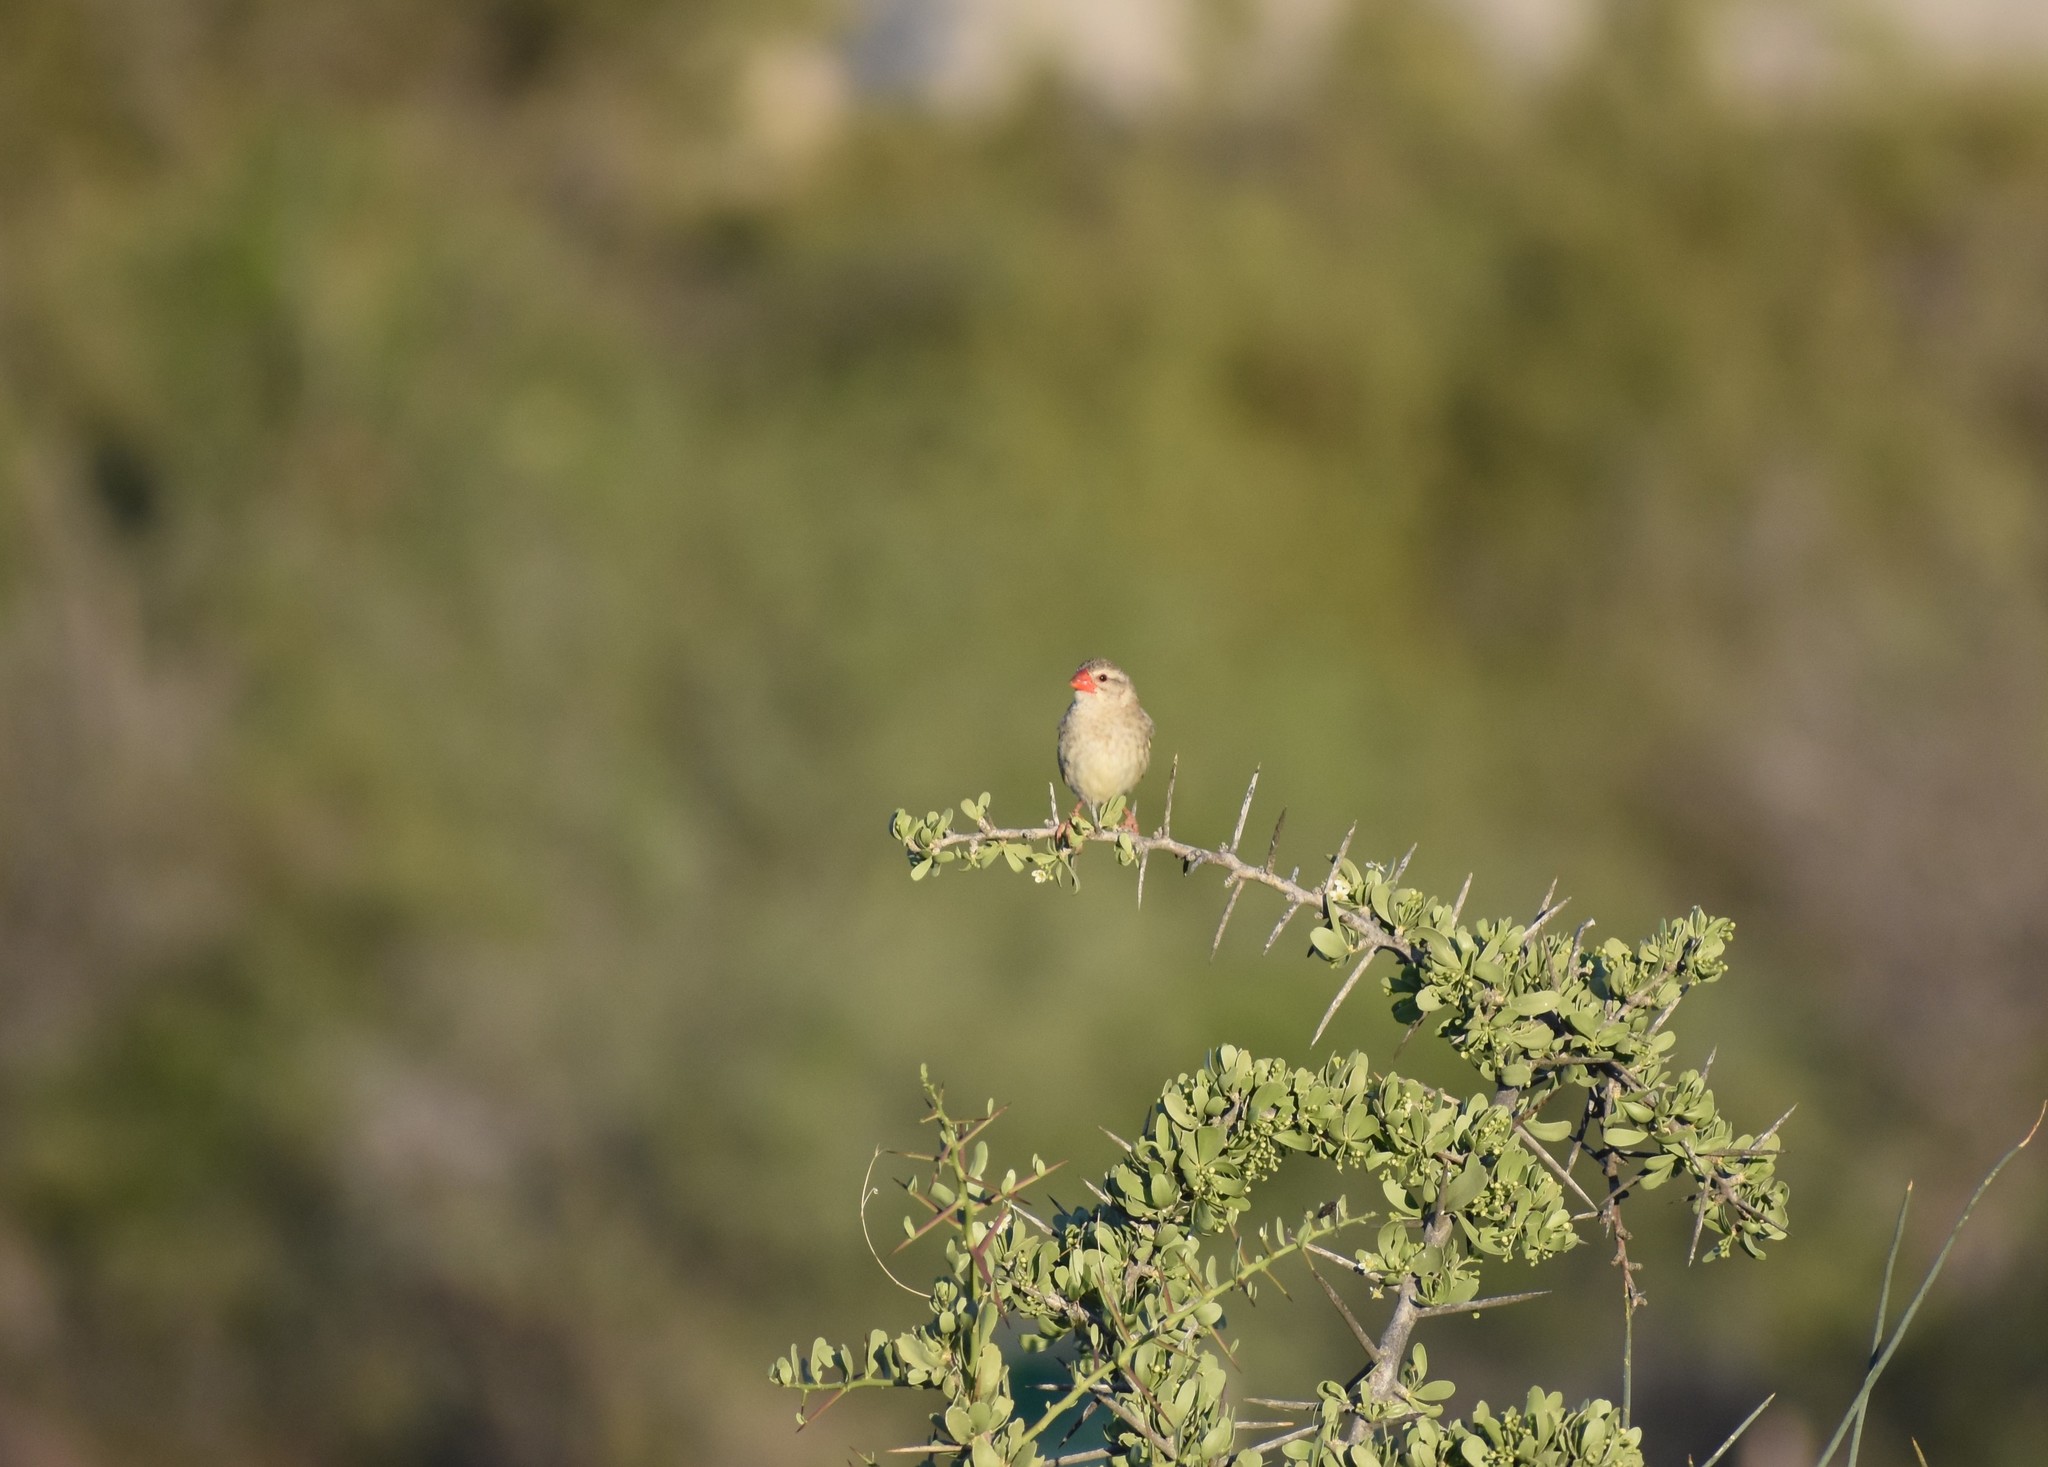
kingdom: Animalia
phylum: Chordata
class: Aves
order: Passeriformes
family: Ploceidae
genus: Quelea
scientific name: Quelea quelea
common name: Red-billed quelea
